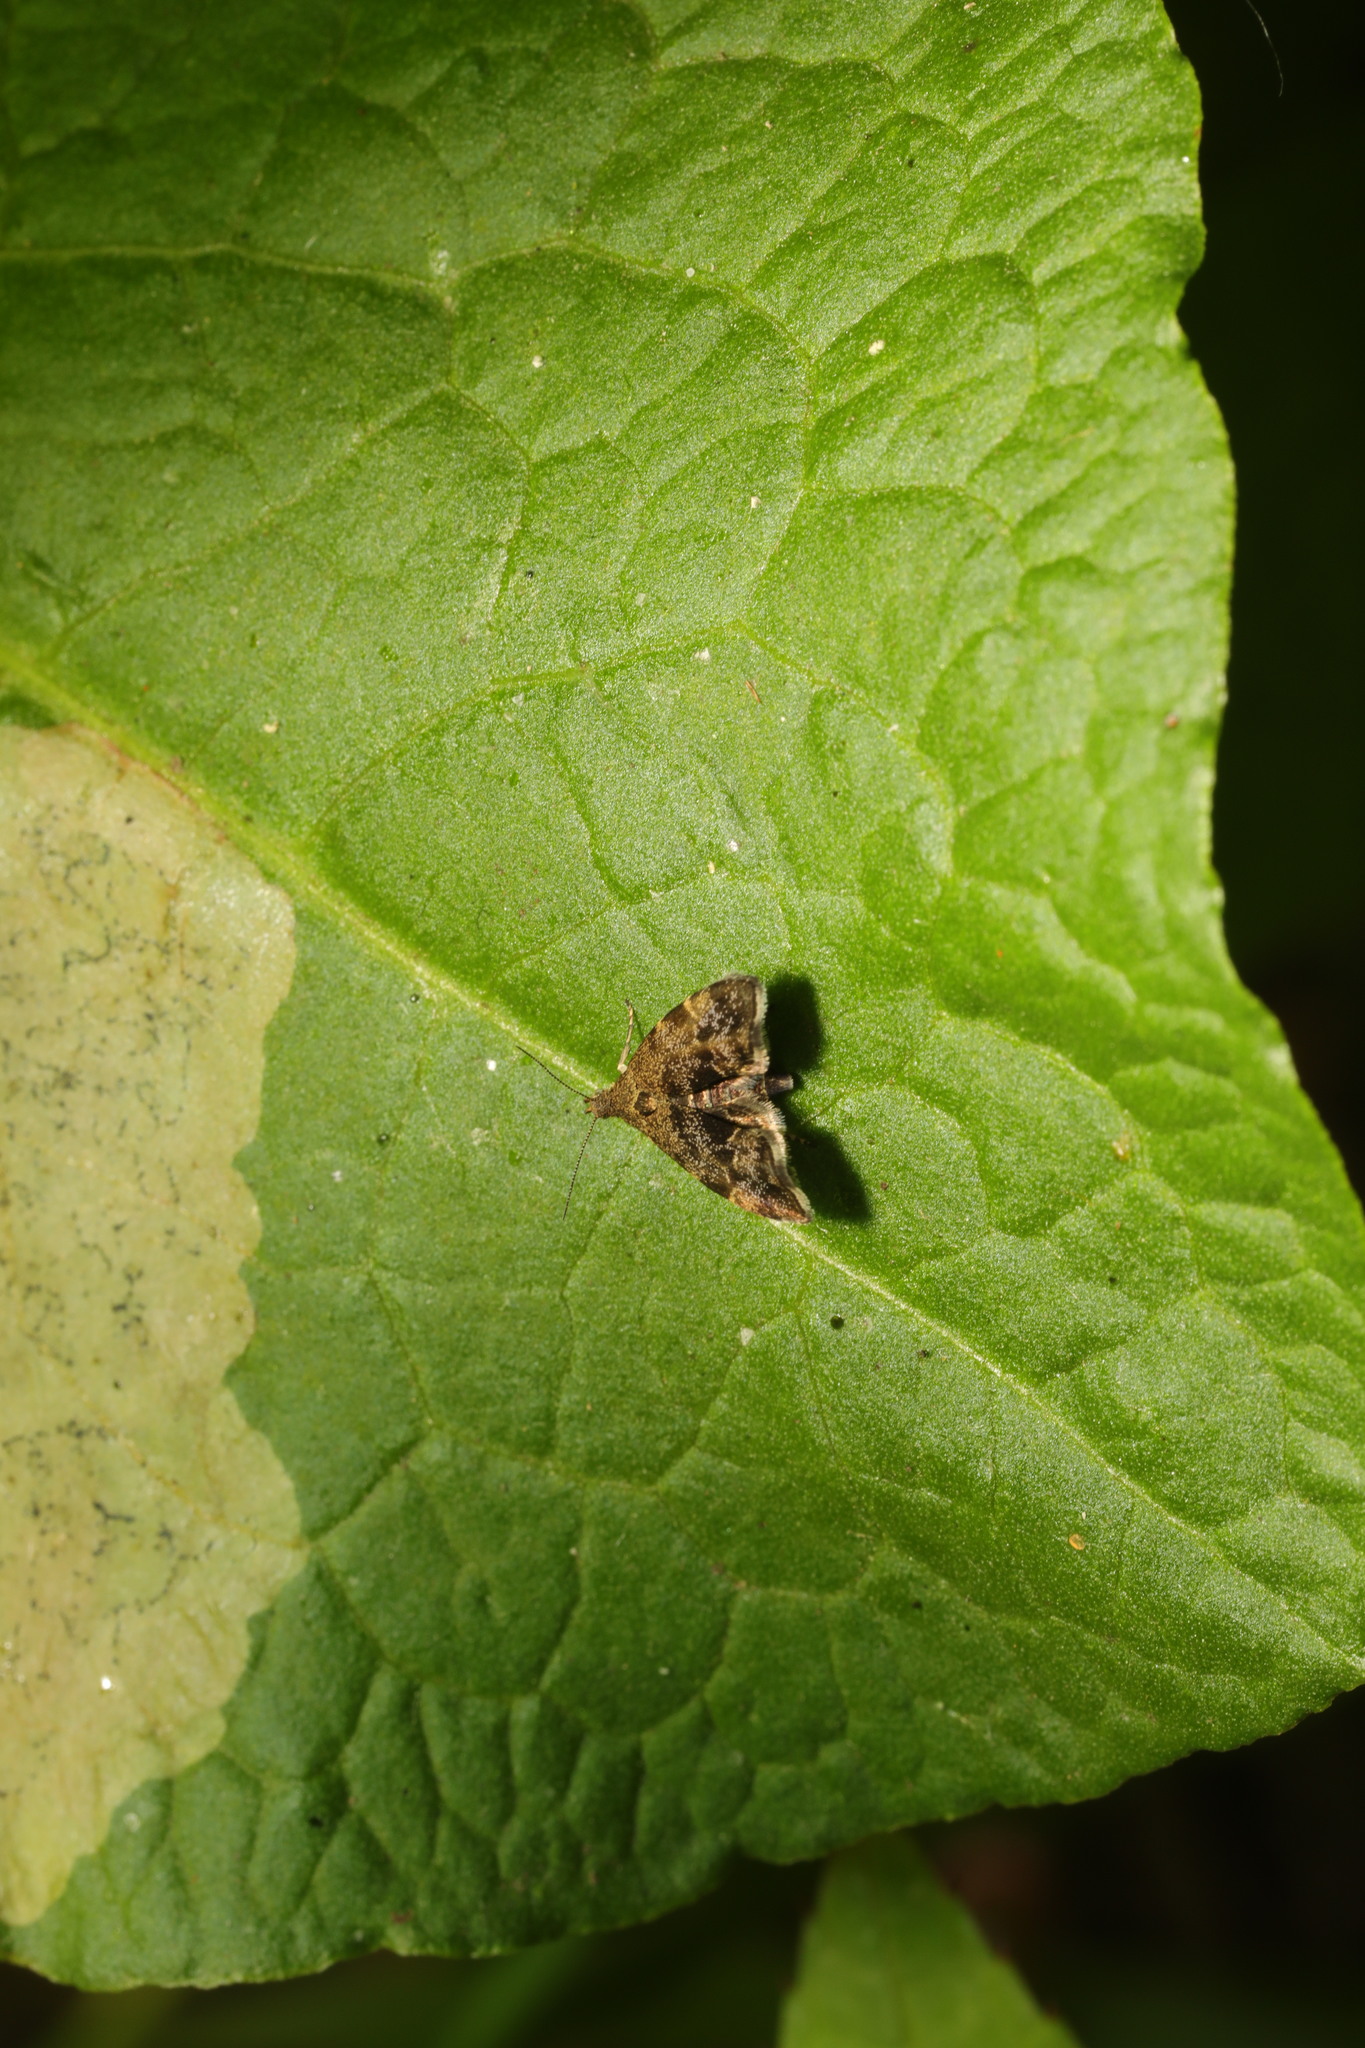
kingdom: Animalia
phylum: Arthropoda
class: Insecta
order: Lepidoptera
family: Choreutidae
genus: Anthophila
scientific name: Anthophila fabriciana
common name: Nettle-tap
